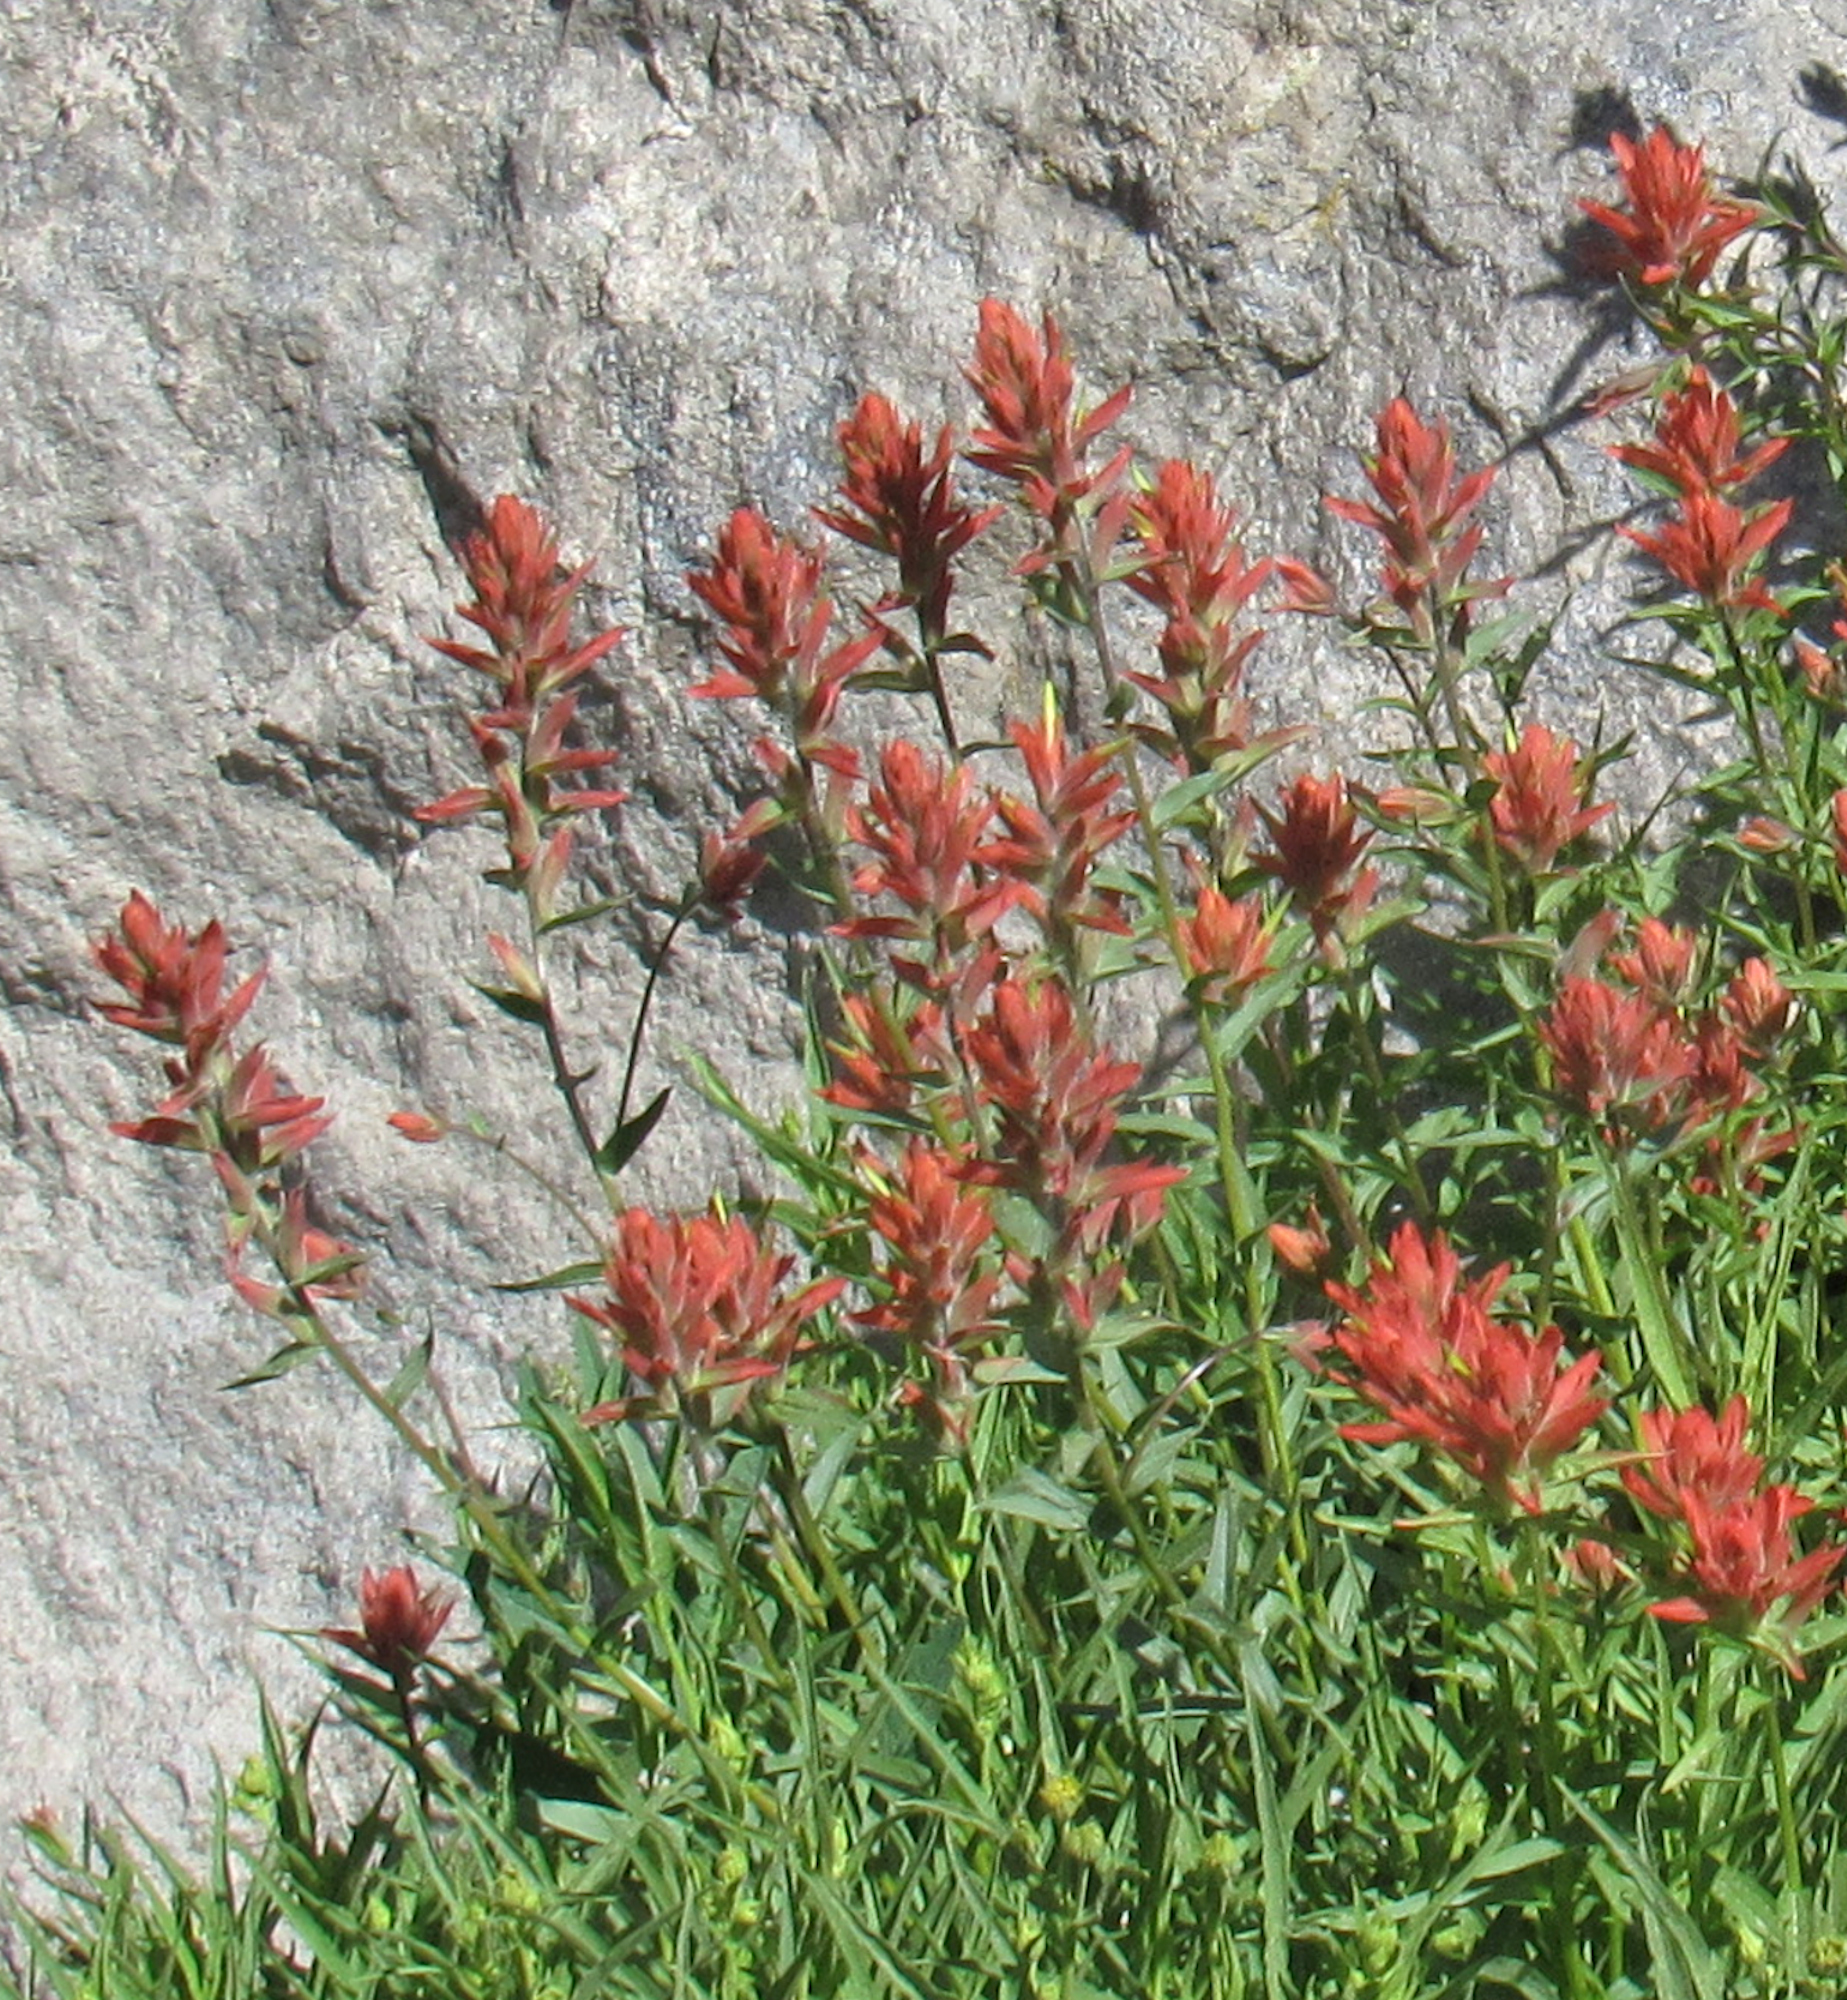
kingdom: Plantae
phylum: Tracheophyta
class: Magnoliopsida
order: Lamiales
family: Orobanchaceae
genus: Castilleja
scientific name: Castilleja miniata
